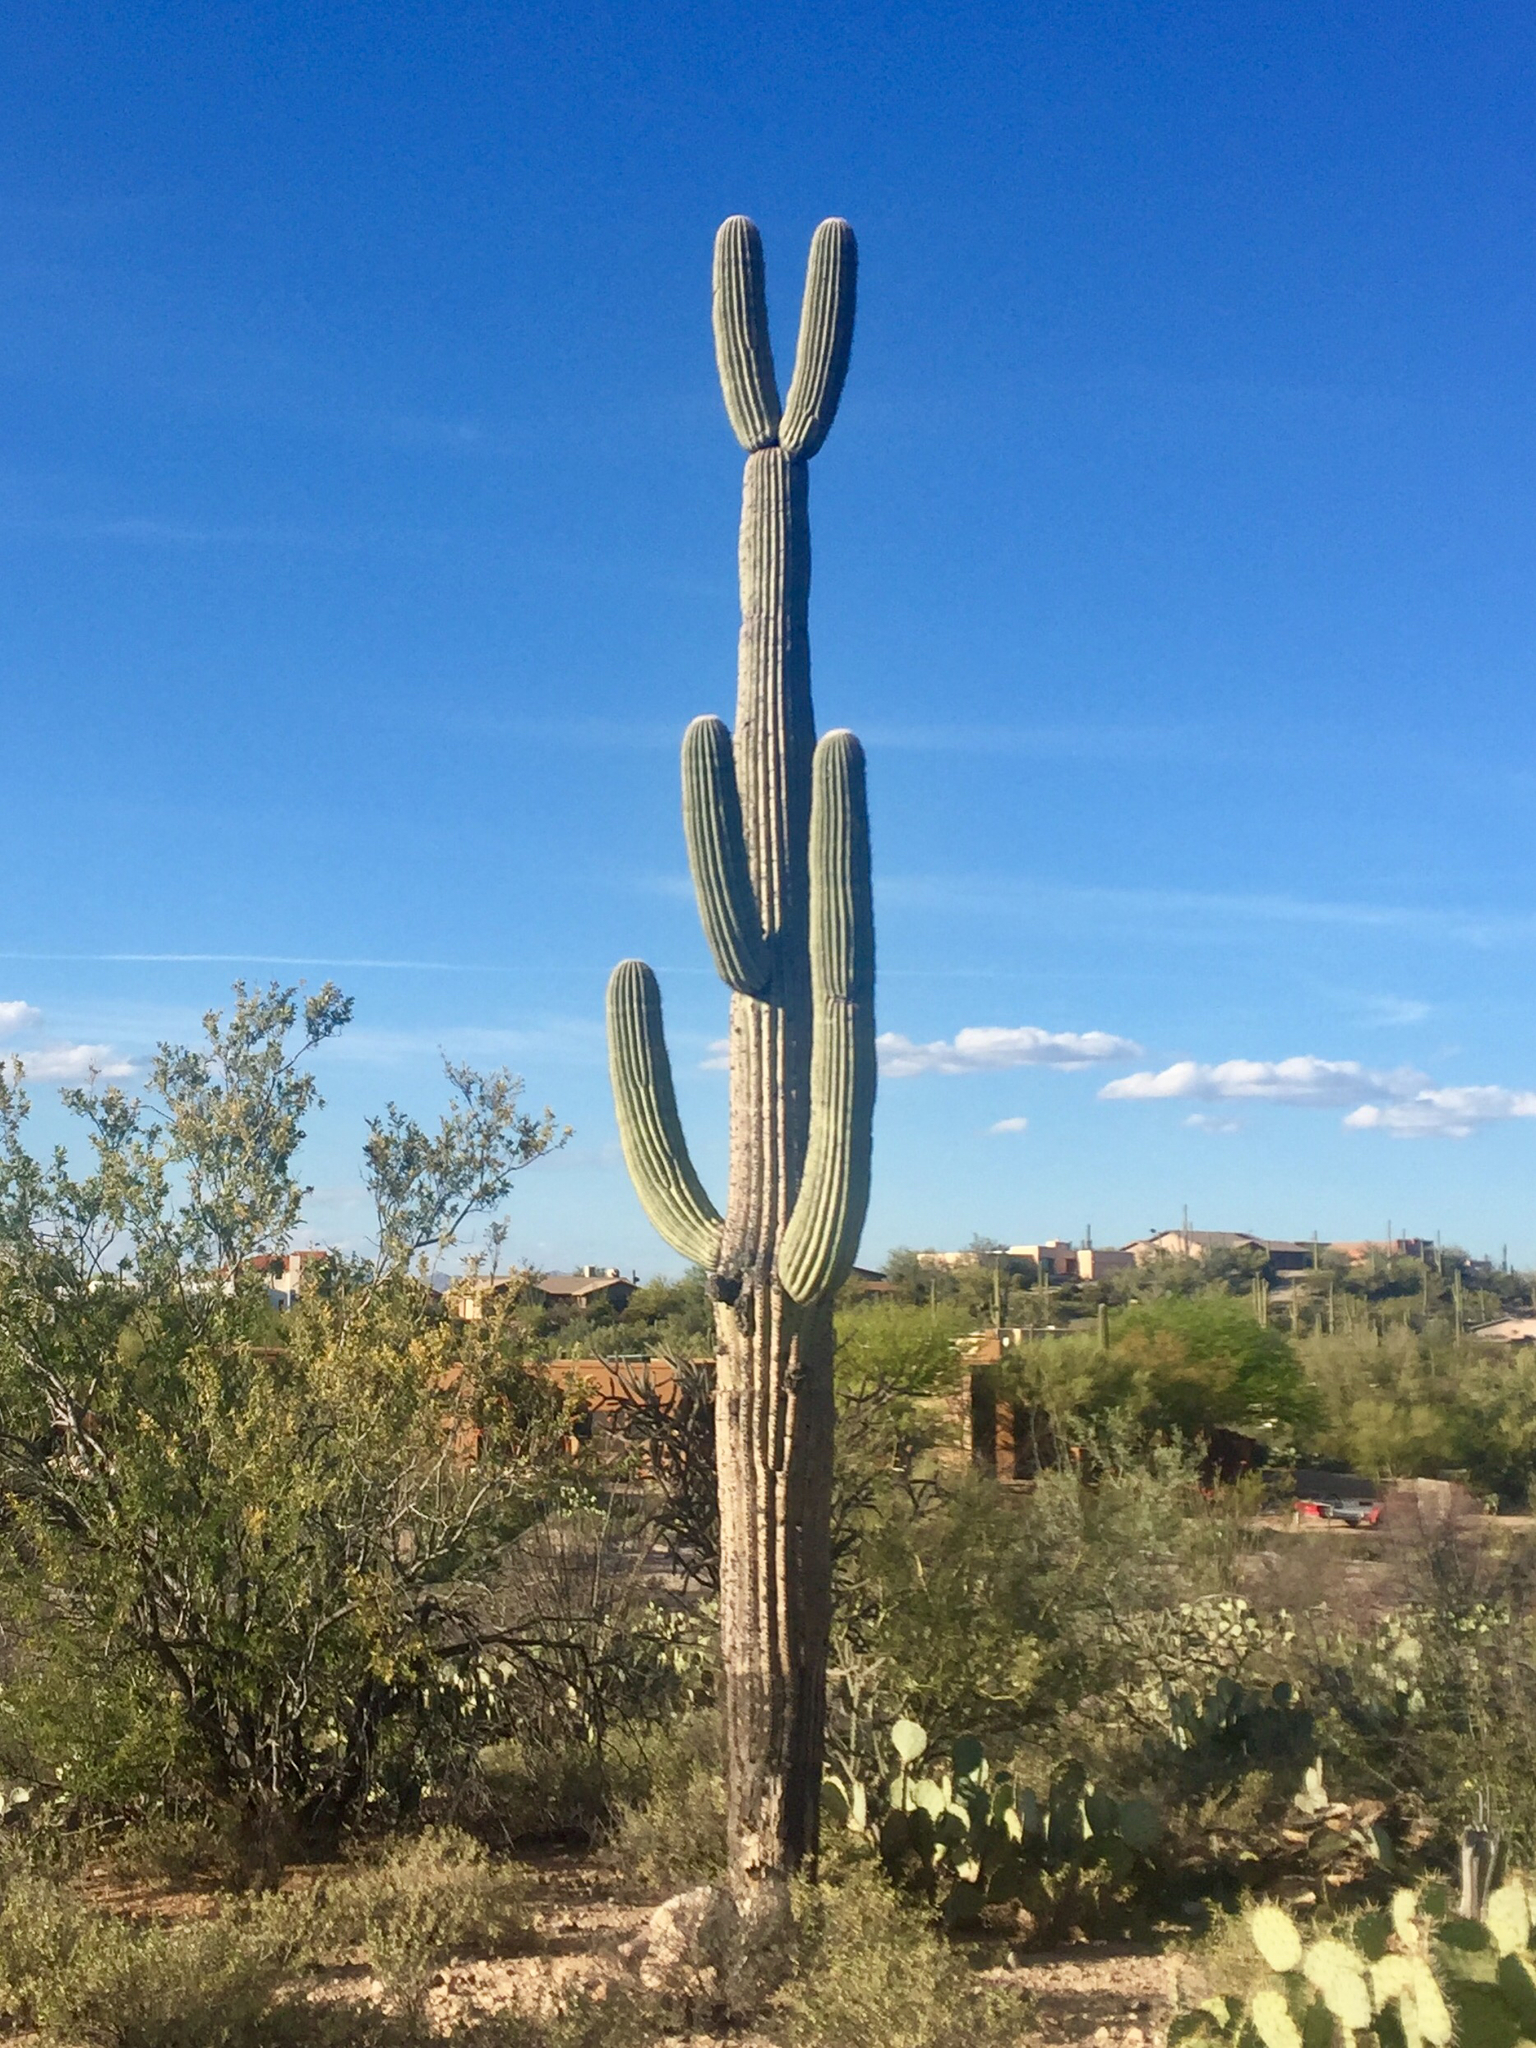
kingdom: Plantae
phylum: Tracheophyta
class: Magnoliopsida
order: Caryophyllales
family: Cactaceae
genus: Carnegiea
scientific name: Carnegiea gigantea
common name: Saguaro
